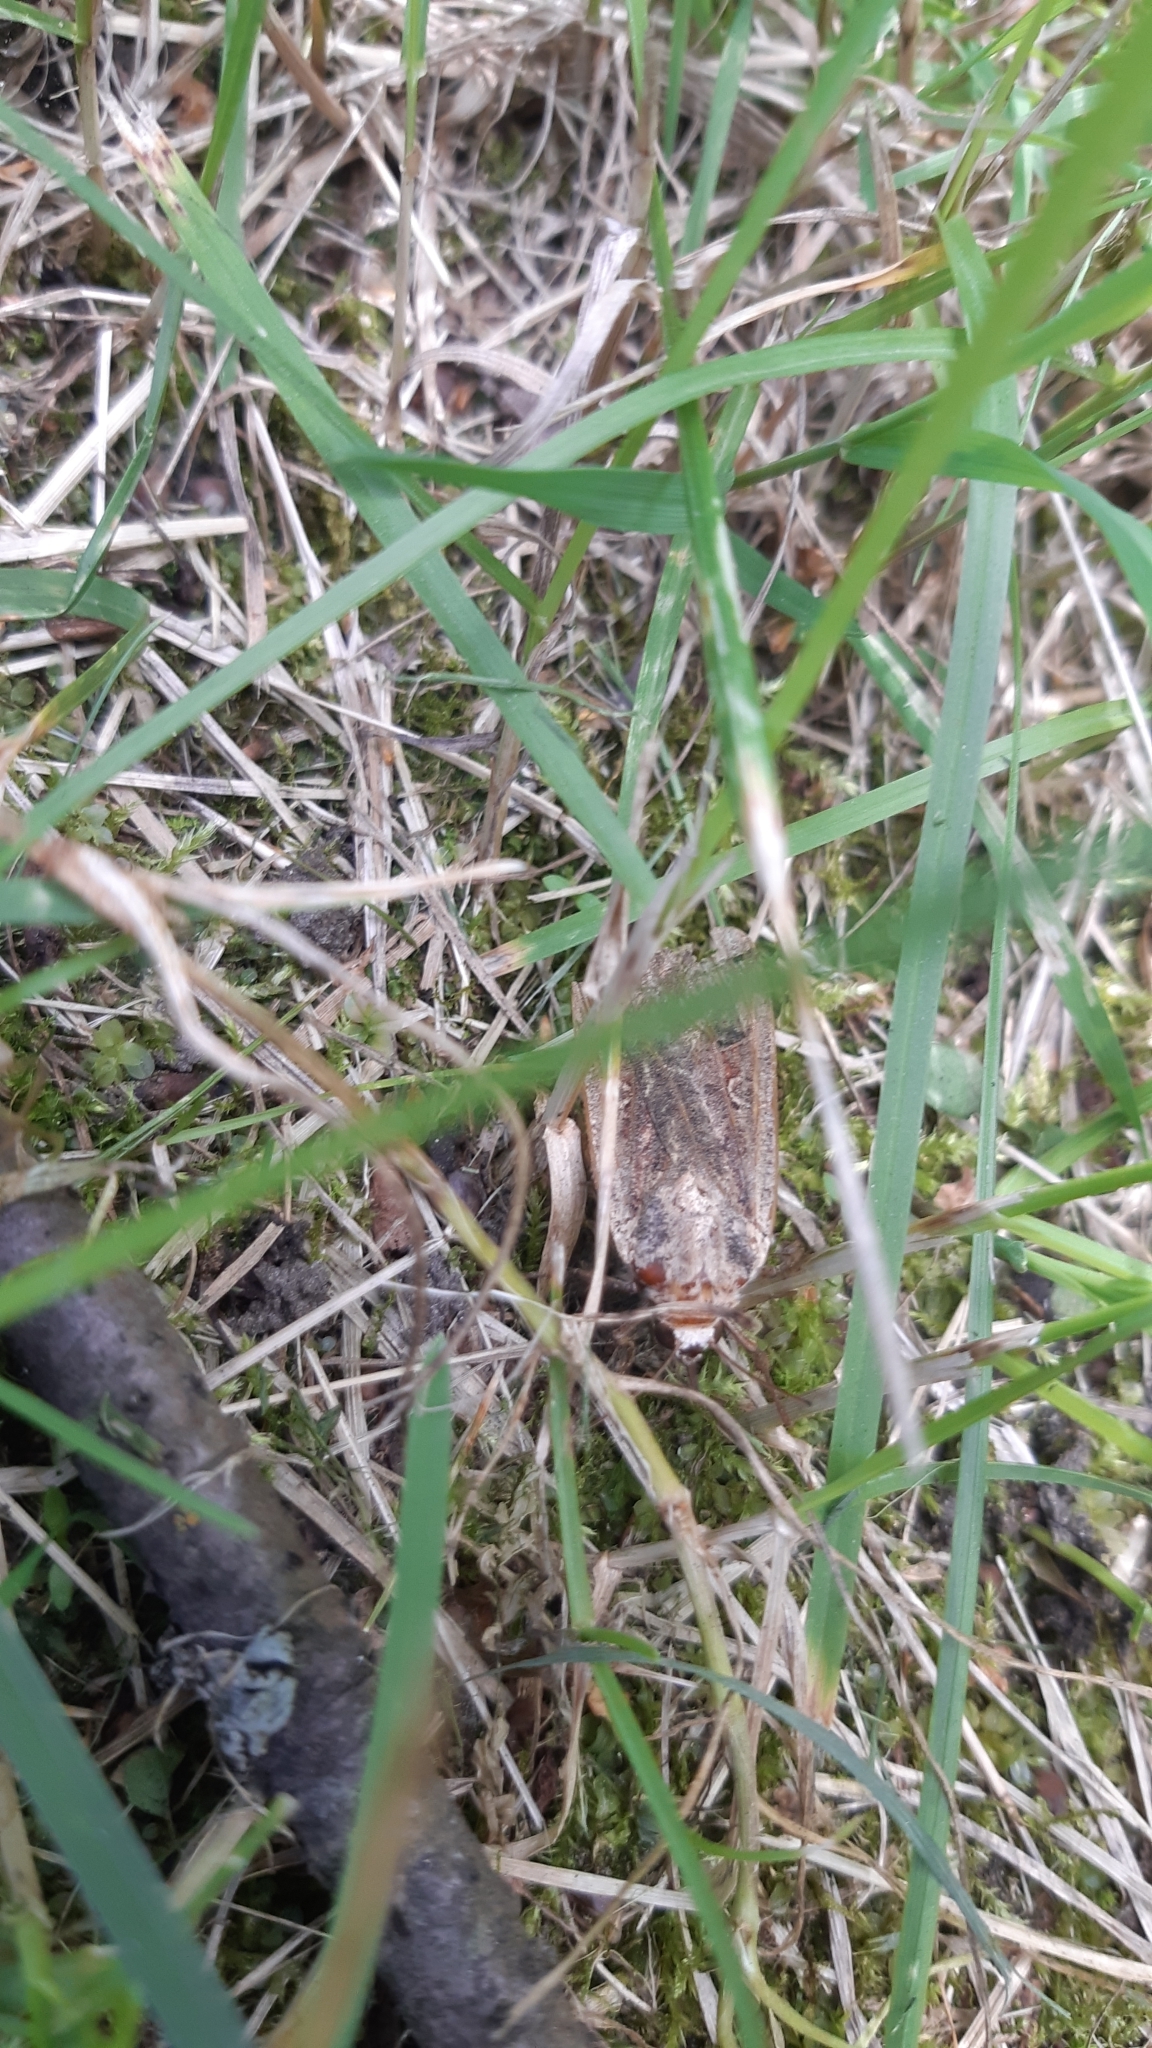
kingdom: Animalia
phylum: Arthropoda
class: Insecta
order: Lepidoptera
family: Noctuidae
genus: Noctua
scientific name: Noctua pronuba
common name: Large yellow underwing
